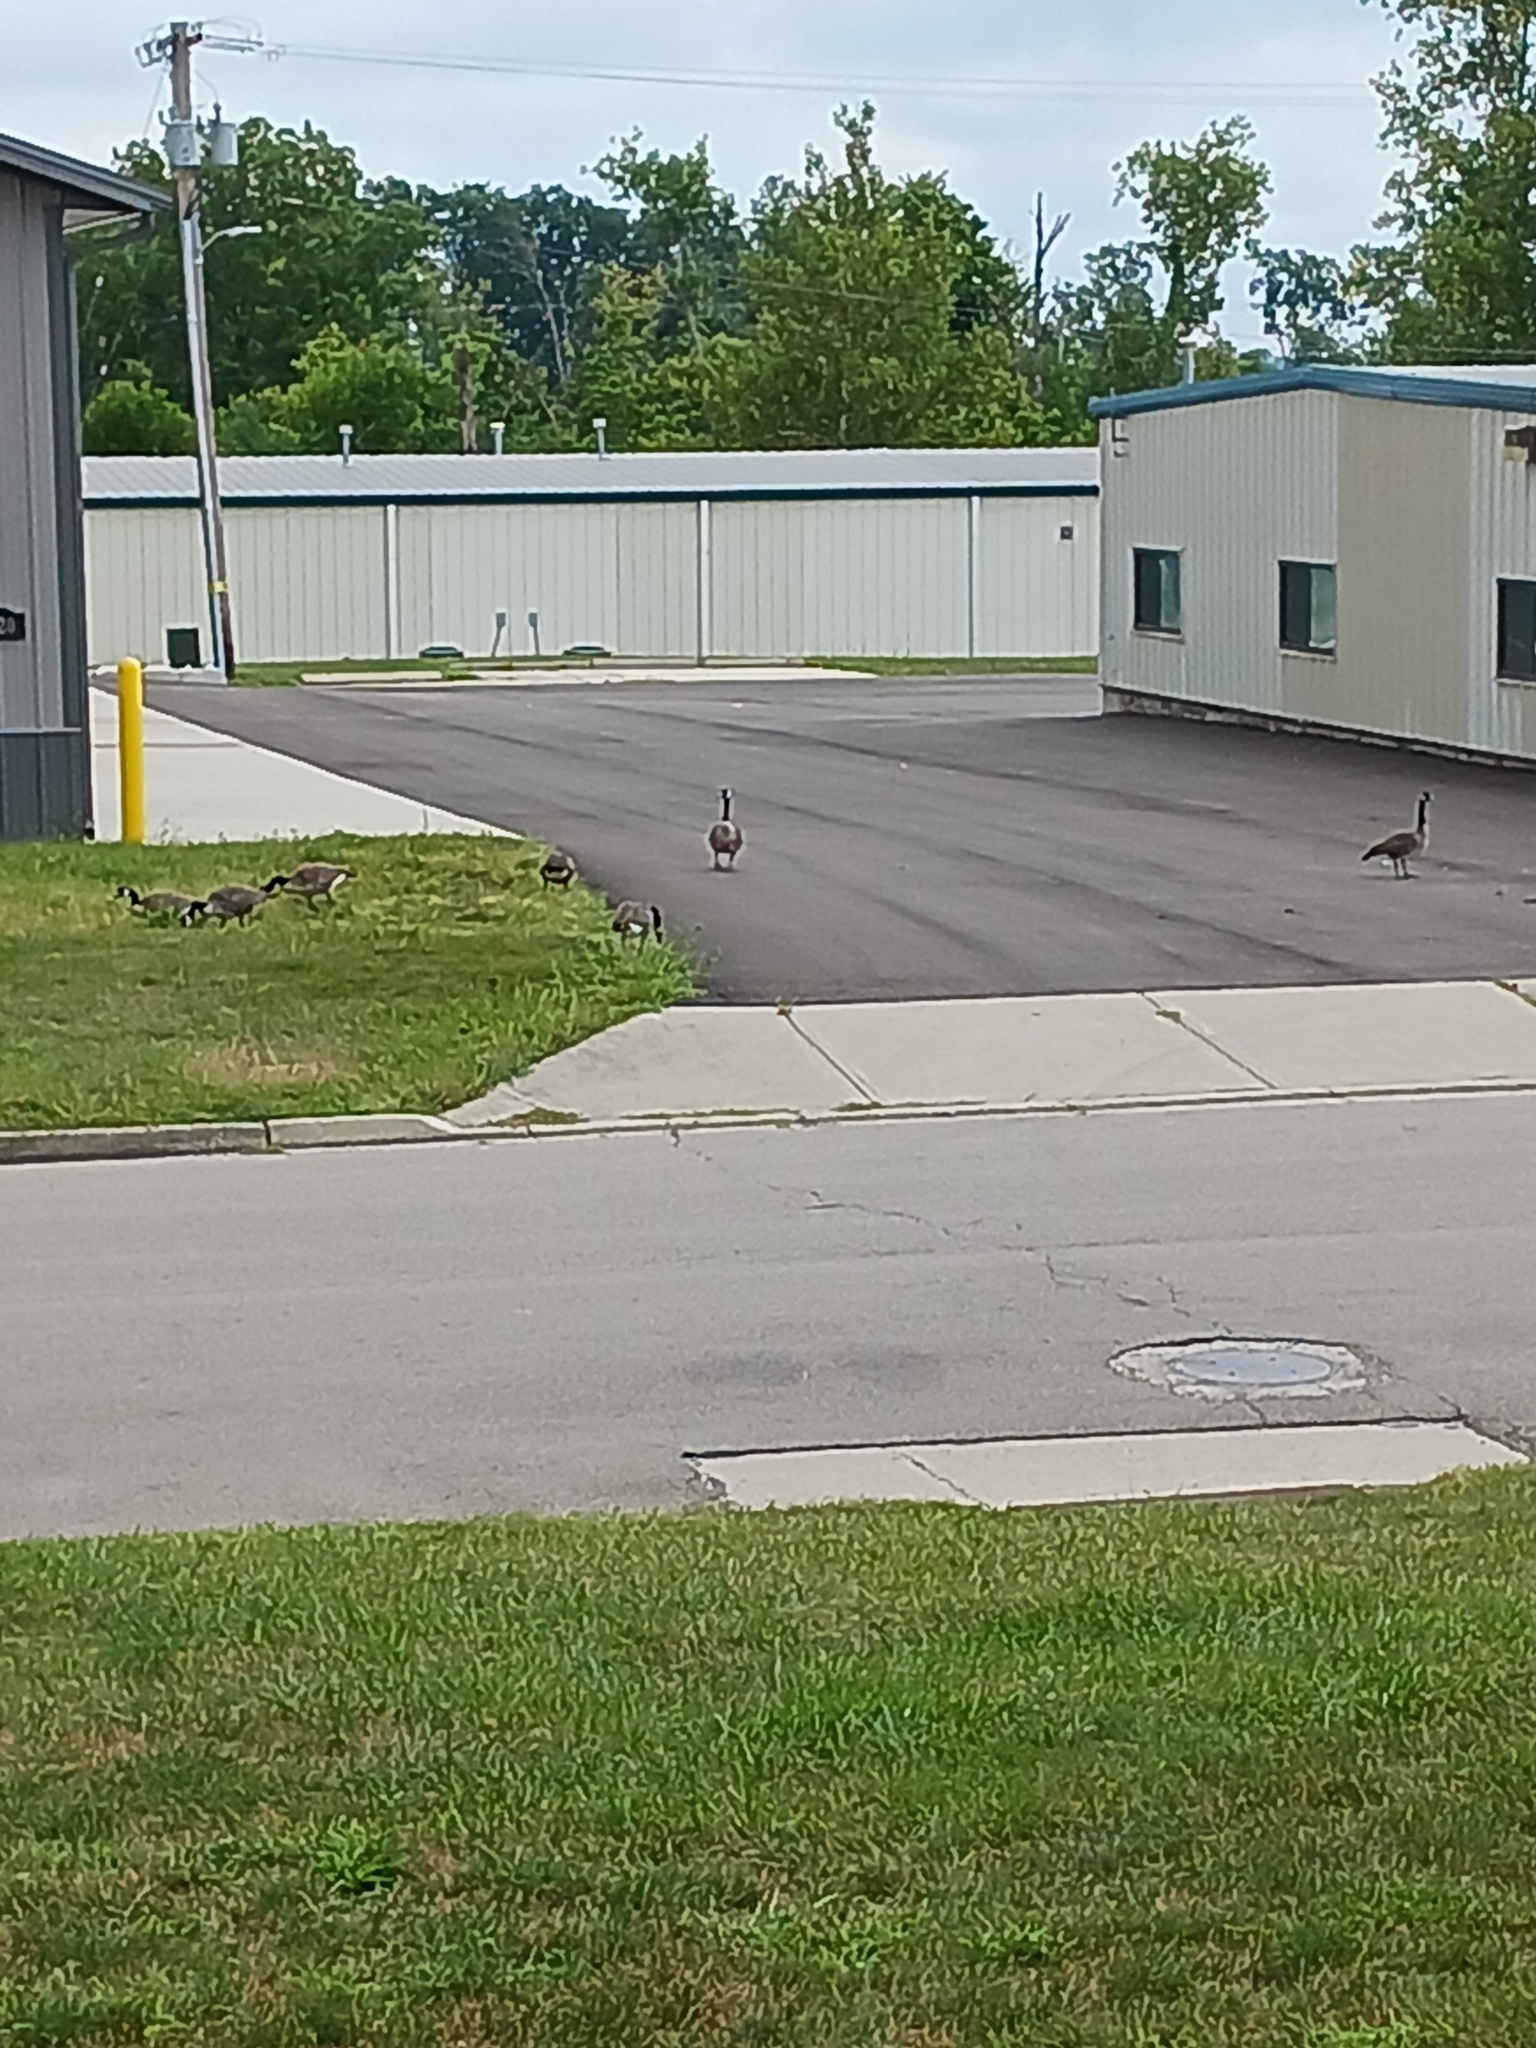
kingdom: Animalia
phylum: Chordata
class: Aves
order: Anseriformes
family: Anatidae
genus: Branta
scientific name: Branta canadensis
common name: Canada goose
